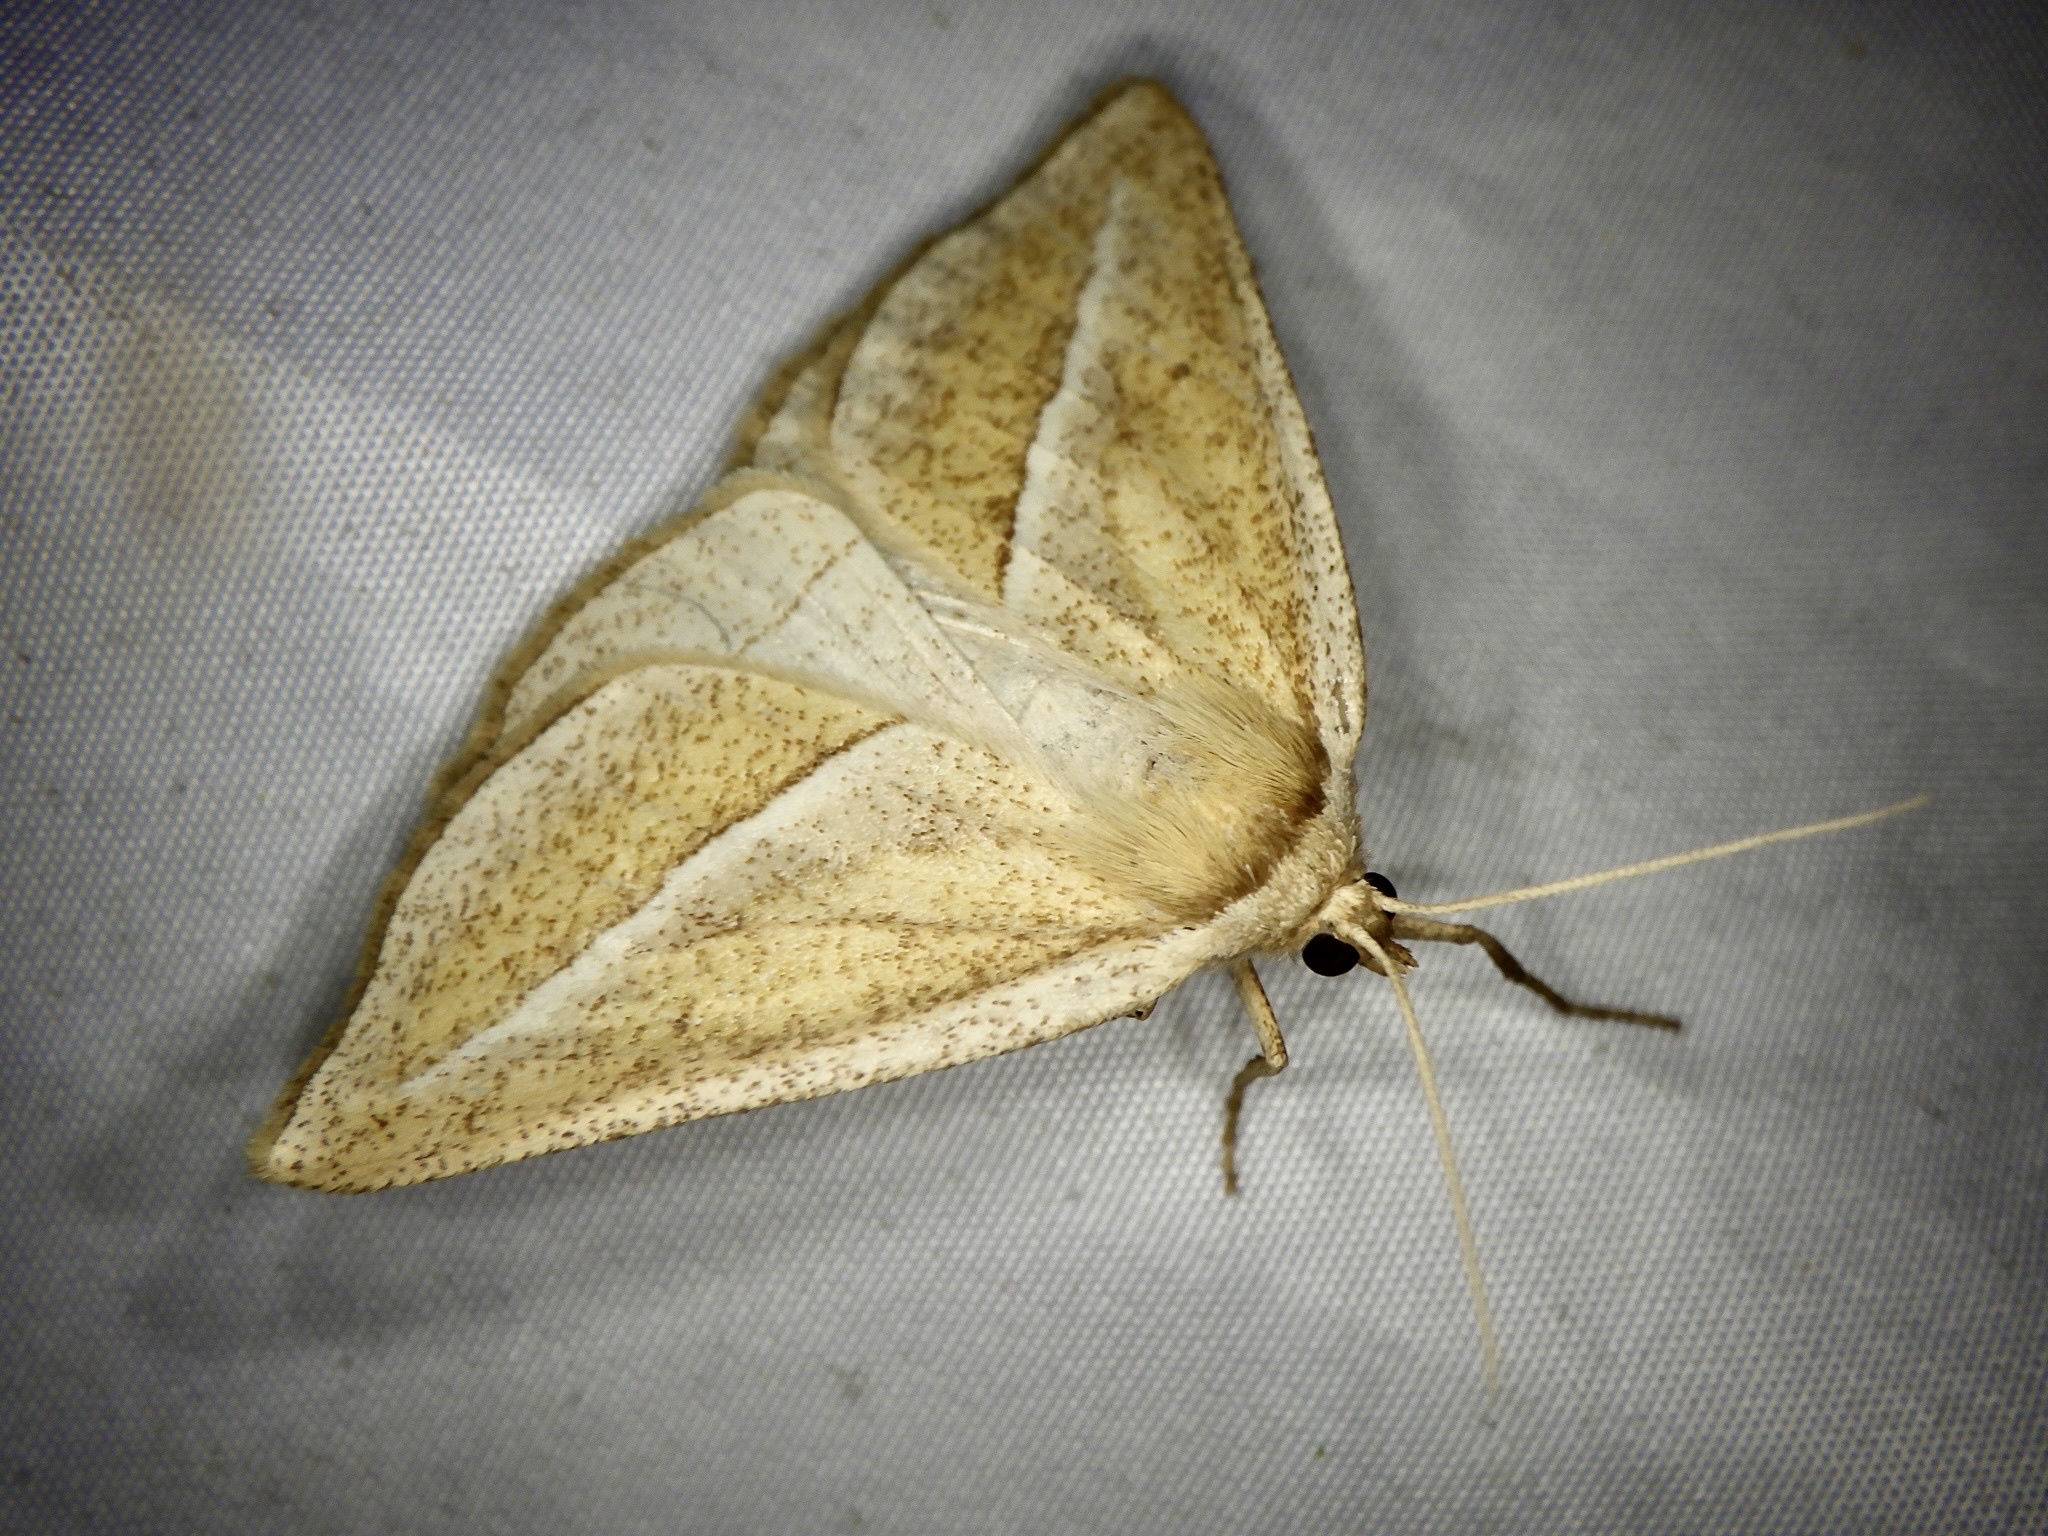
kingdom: Animalia
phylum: Arthropoda
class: Insecta
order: Lepidoptera
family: Geometridae
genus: Chariaspilates
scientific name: Chariaspilates formosaria
